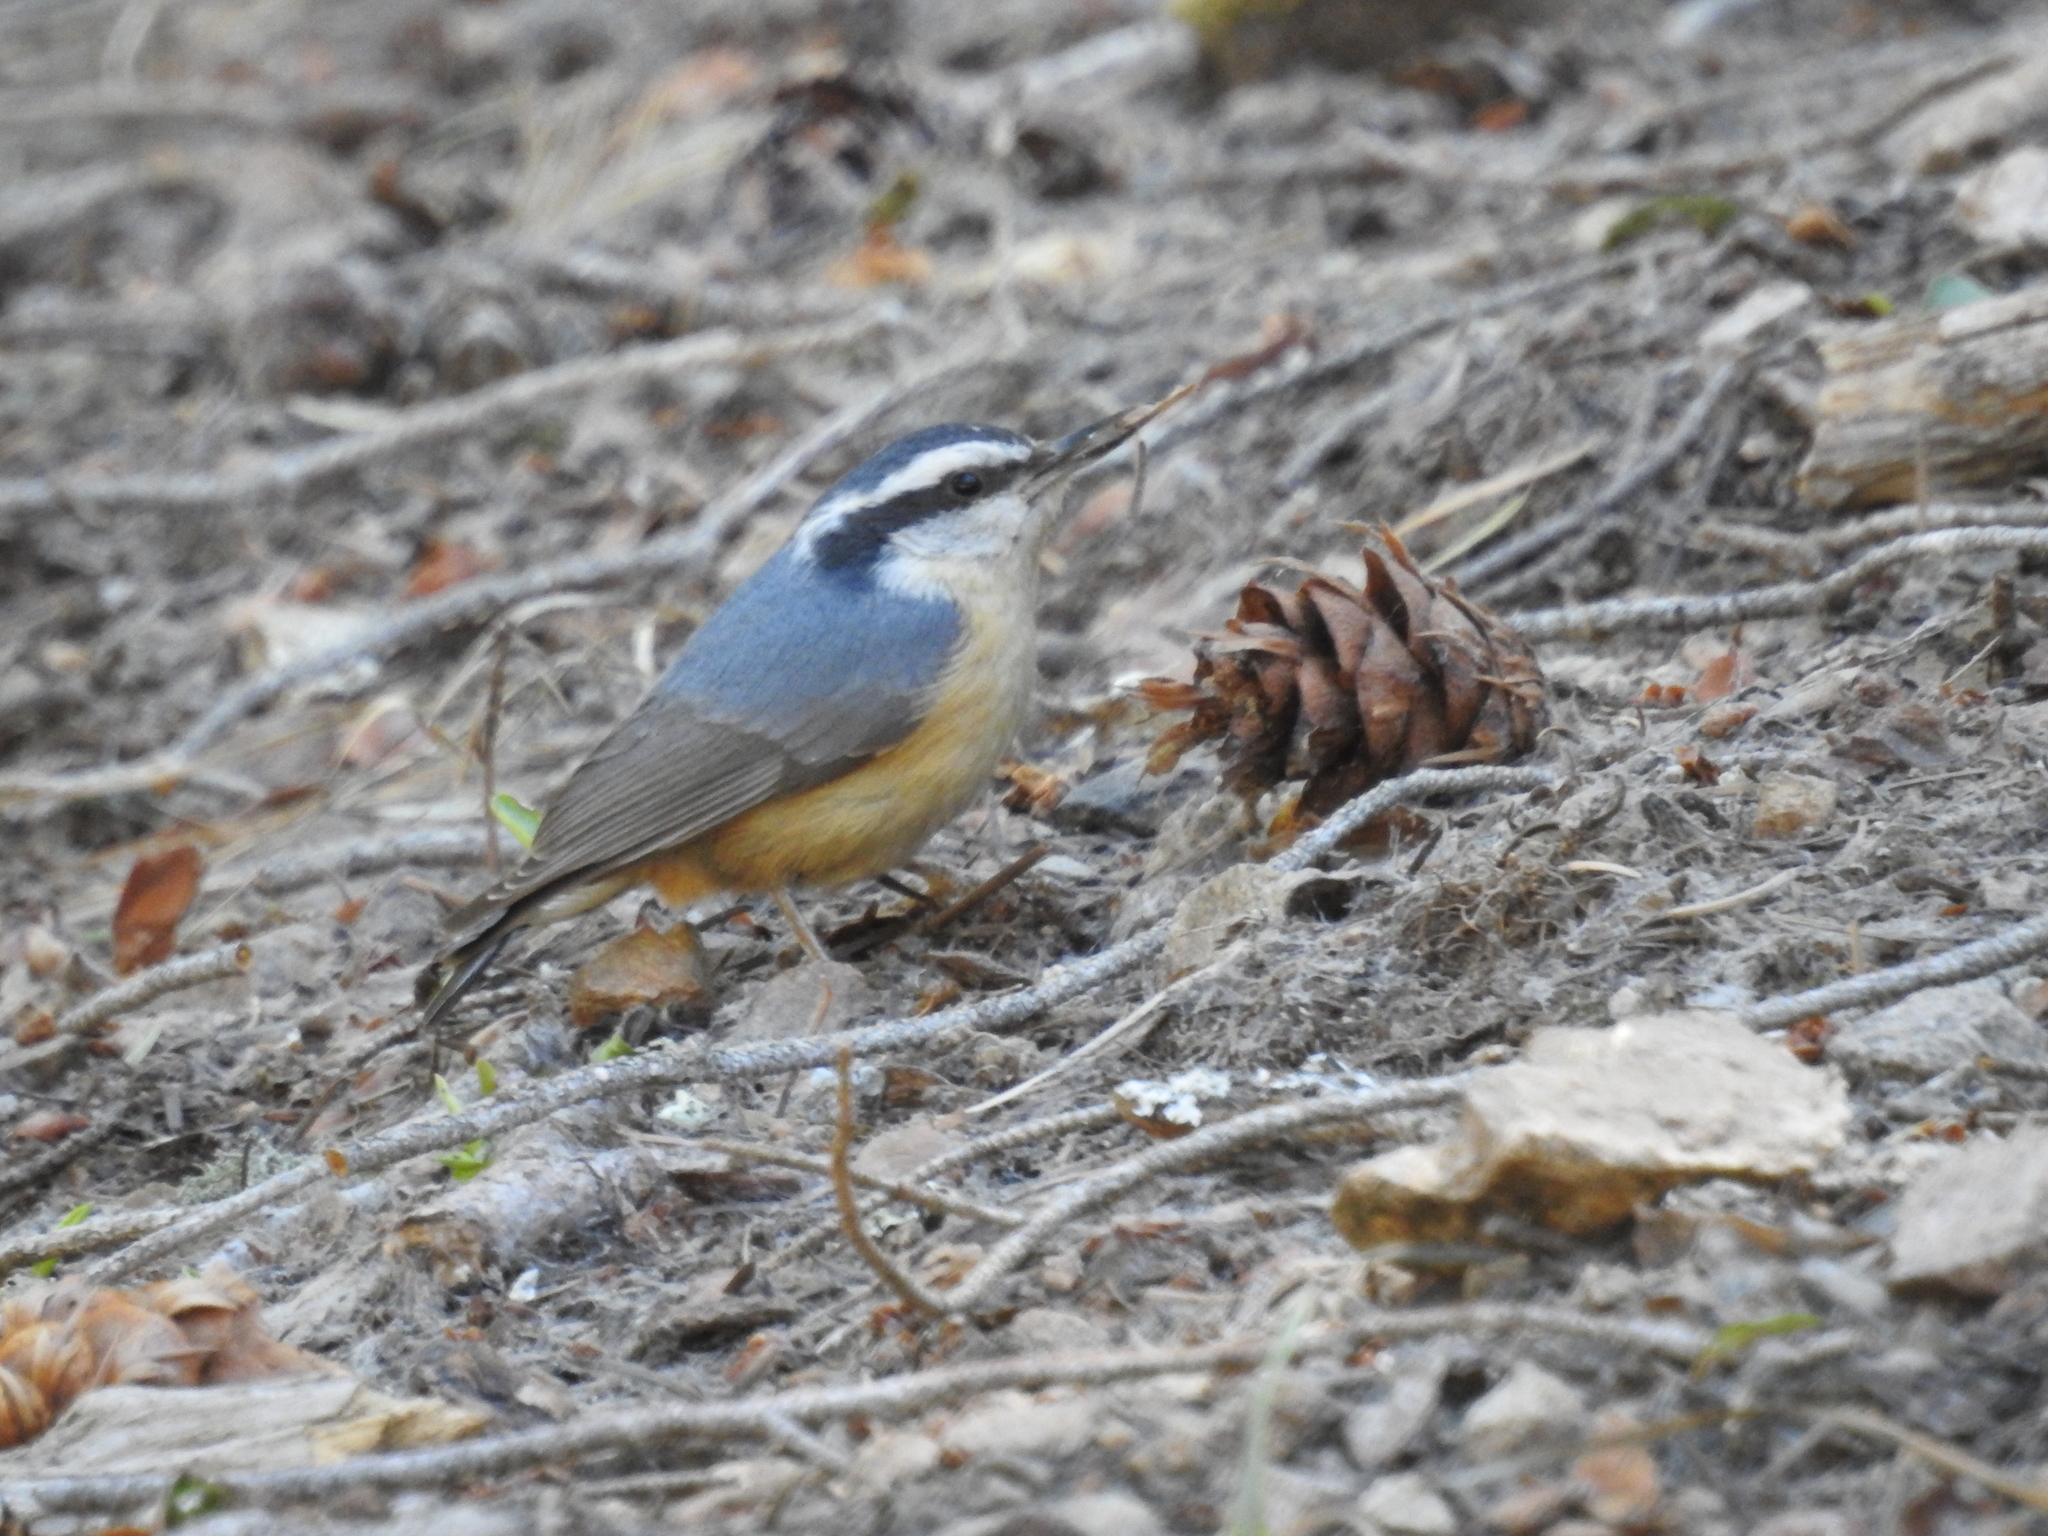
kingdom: Animalia
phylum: Chordata
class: Aves
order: Passeriformes
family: Sittidae
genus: Sitta
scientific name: Sitta canadensis
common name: Red-breasted nuthatch
